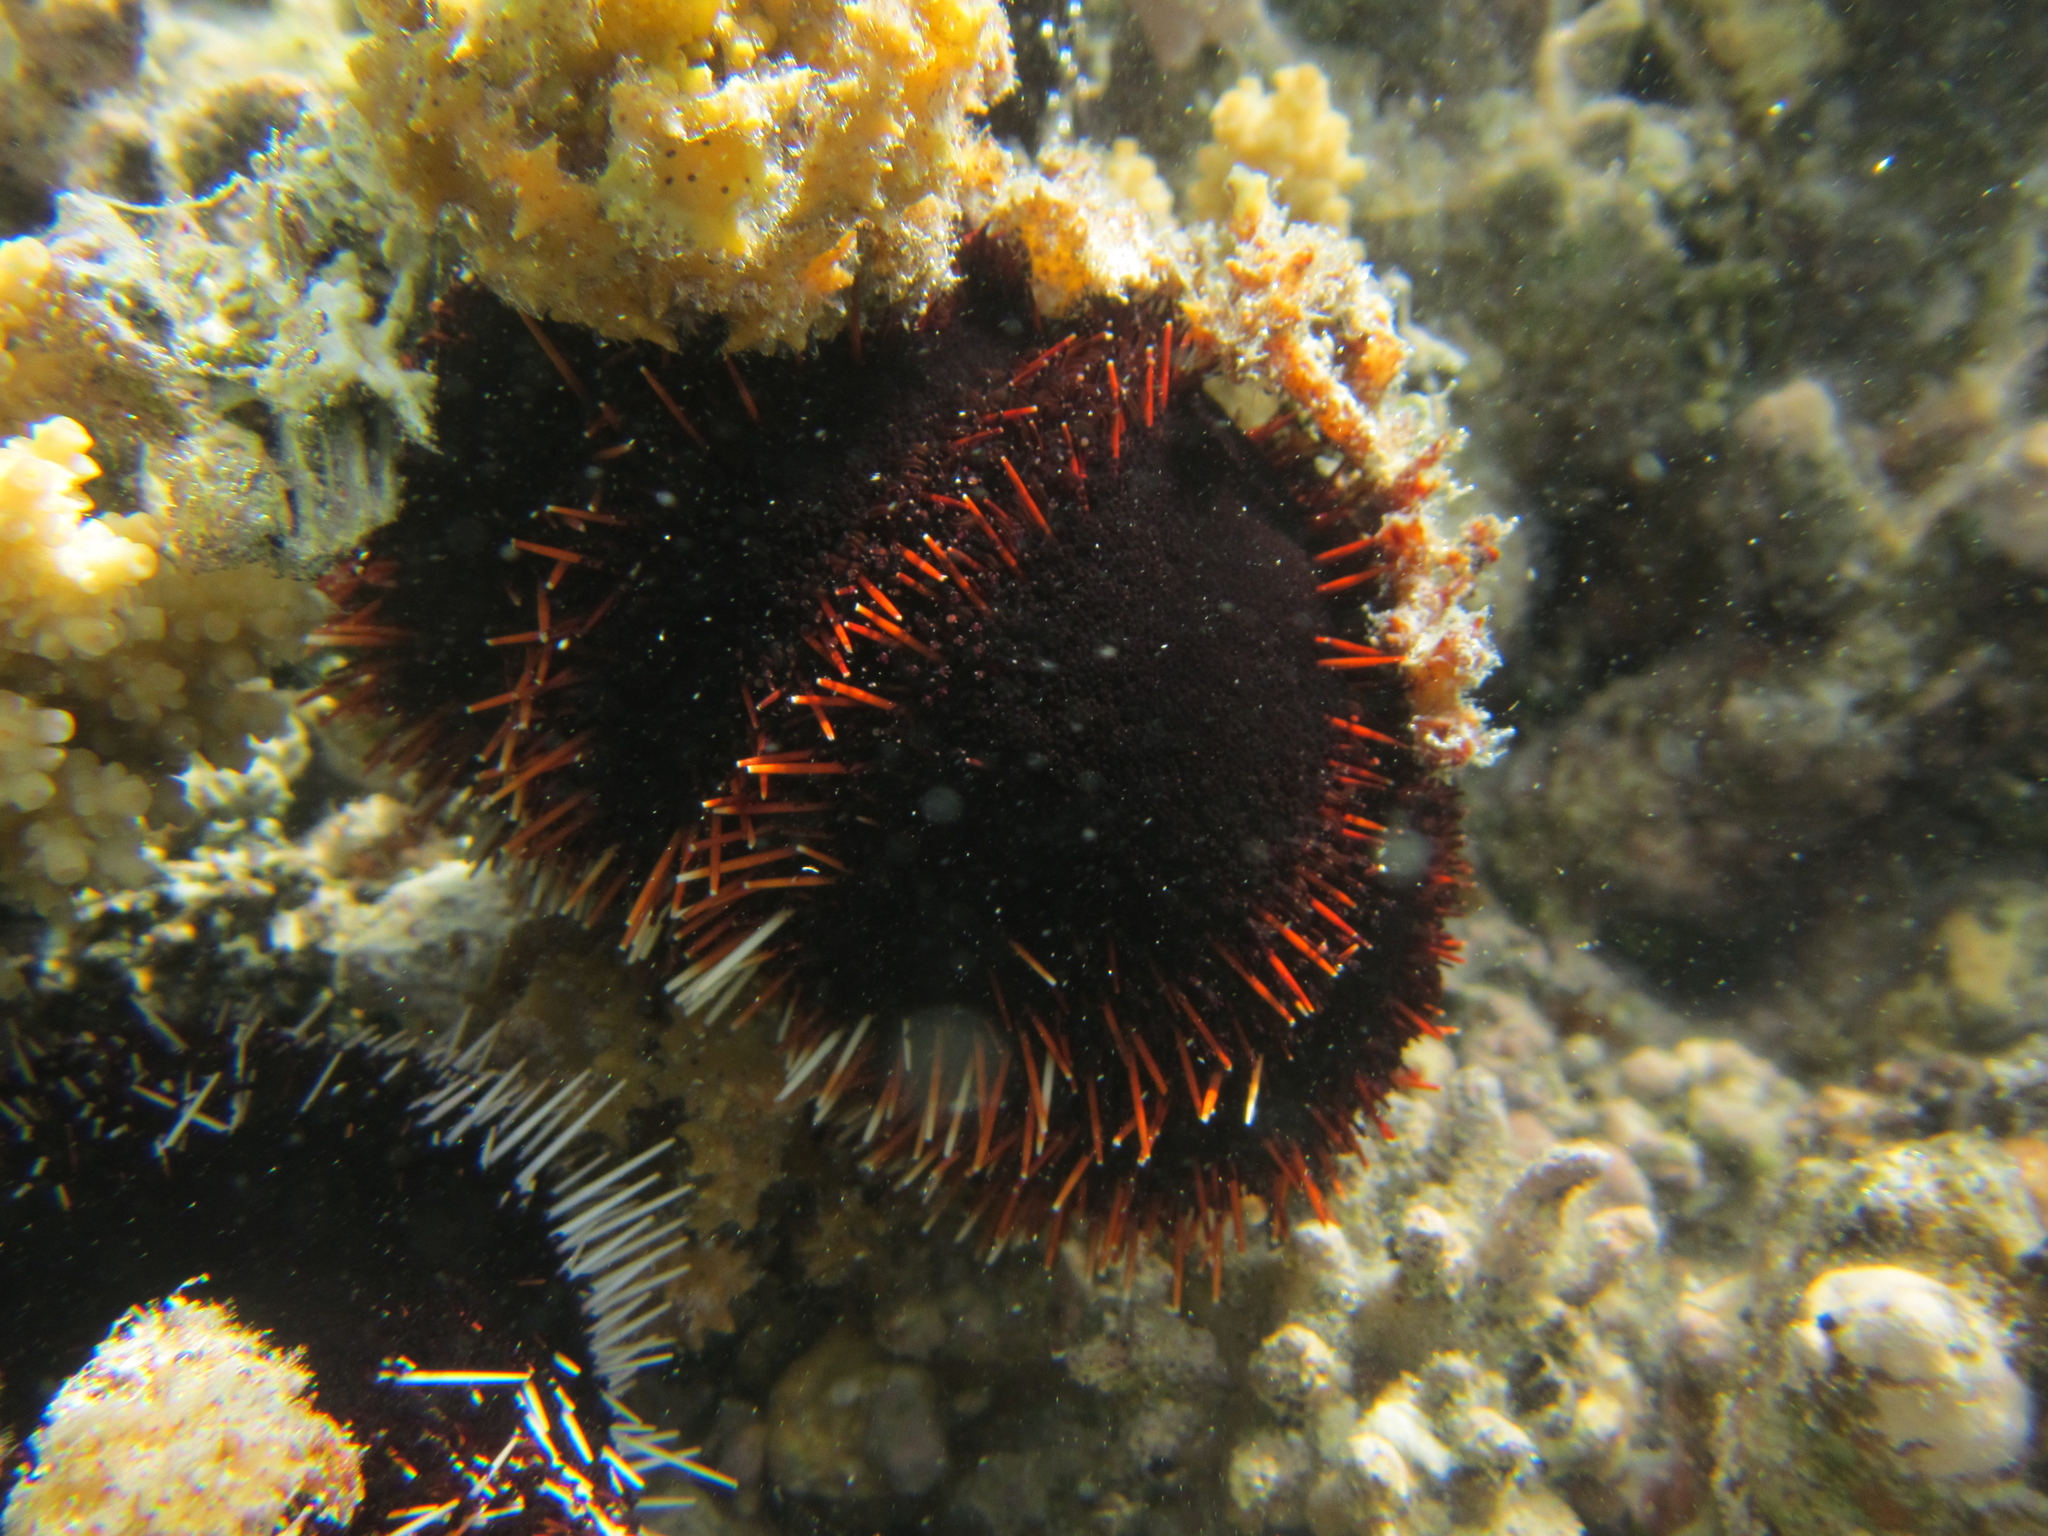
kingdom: Animalia
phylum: Echinodermata
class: Echinoidea
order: Camarodonta
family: Toxopneustidae
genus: Tripneustes
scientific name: Tripneustes gratilla
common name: Bischofsmützenseeigel
